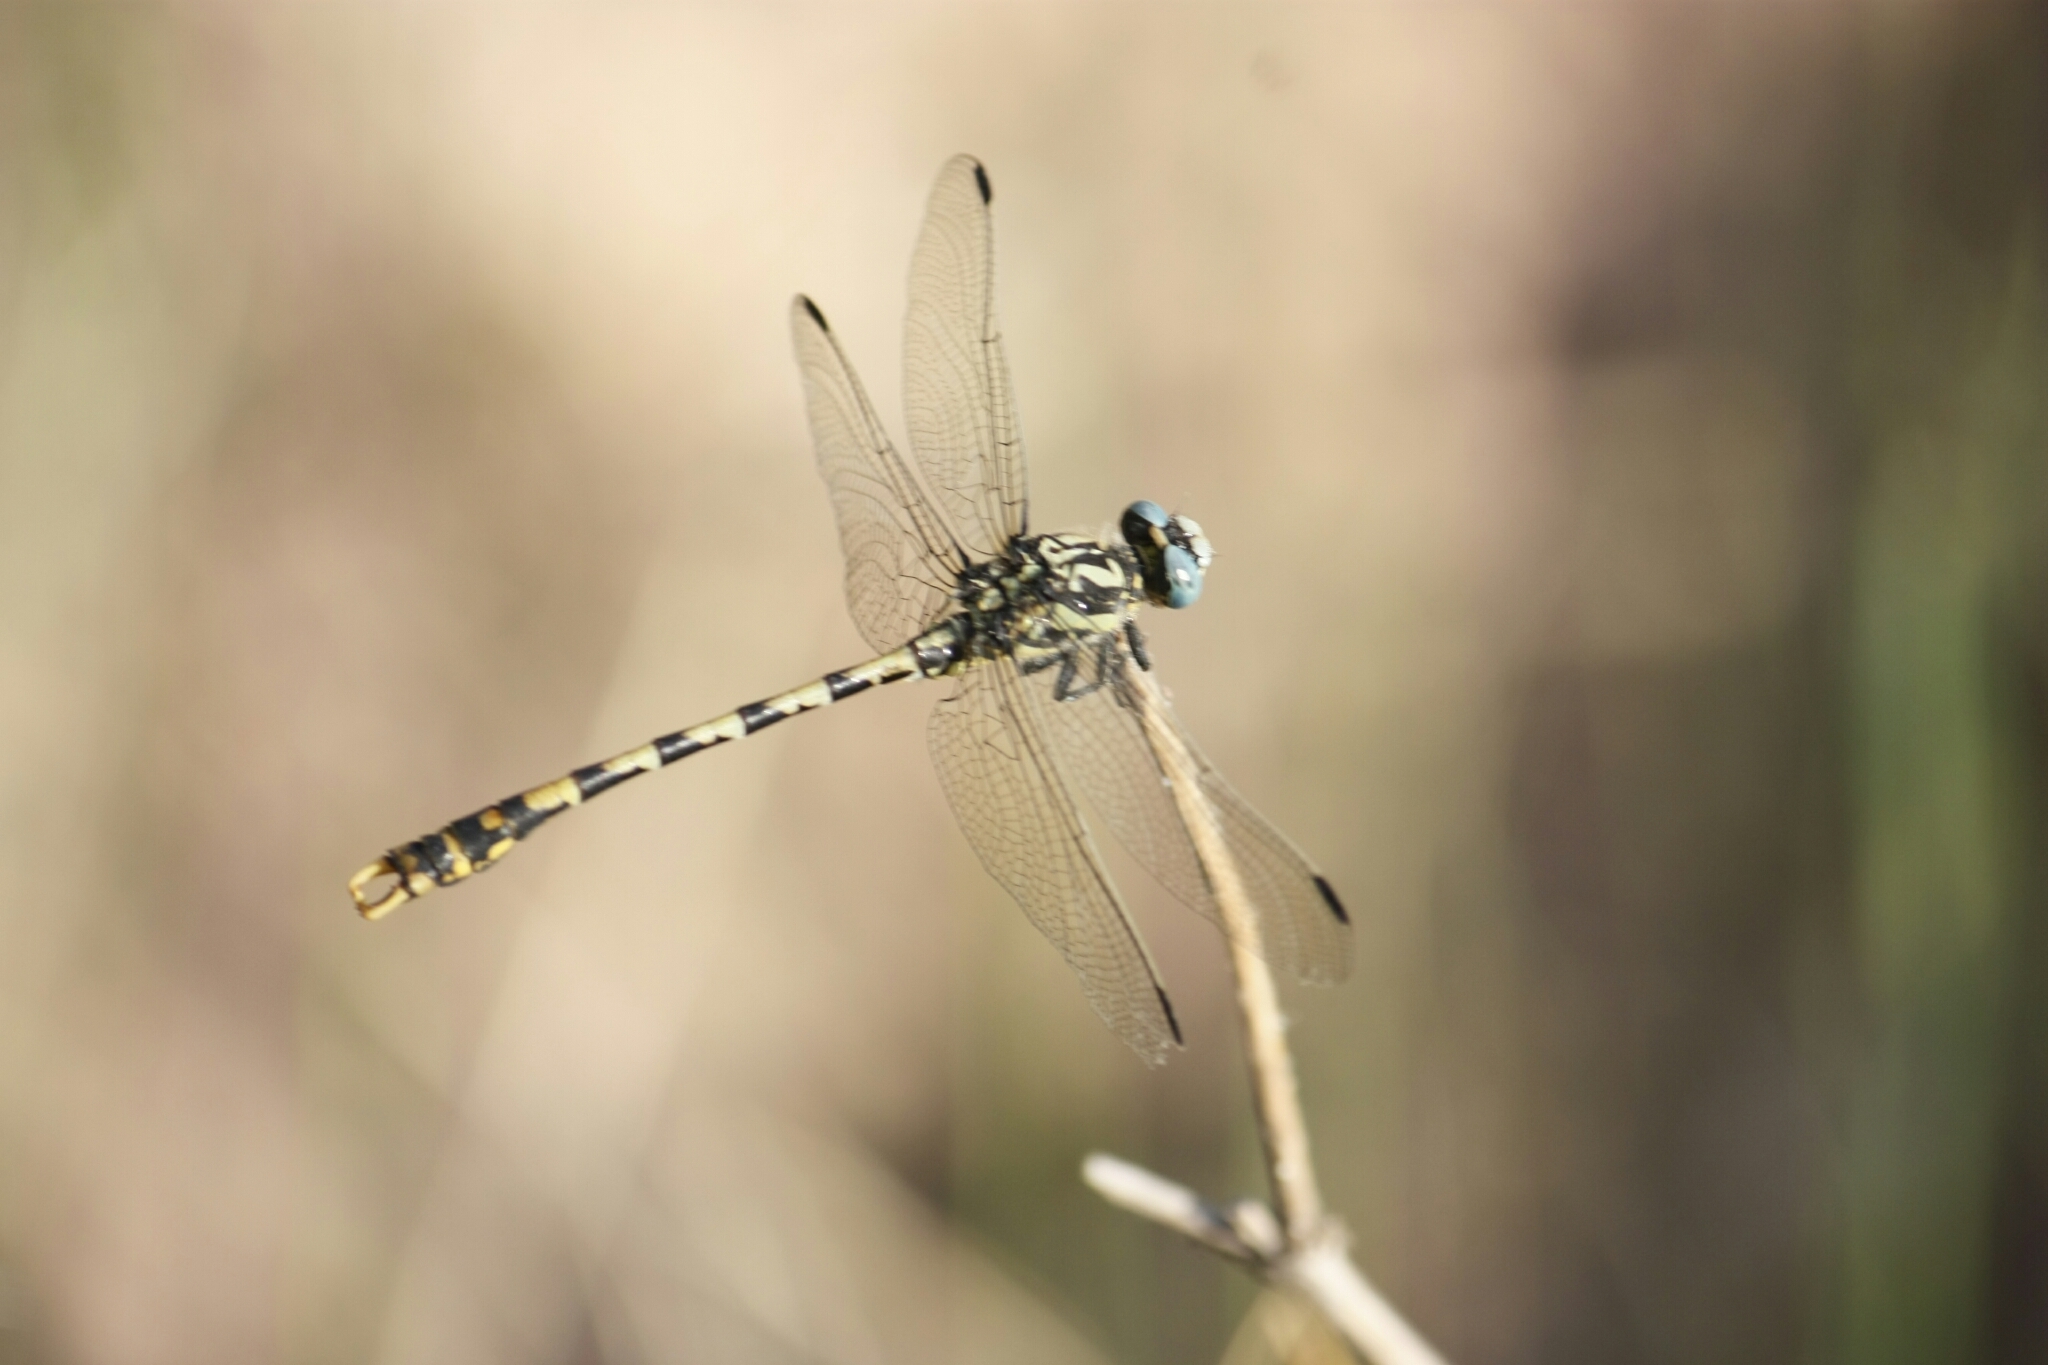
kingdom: Animalia
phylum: Arthropoda
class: Insecta
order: Odonata
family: Gomphidae
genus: Onychogomphus
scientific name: Onychogomphus uncatus
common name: Large pincertail
